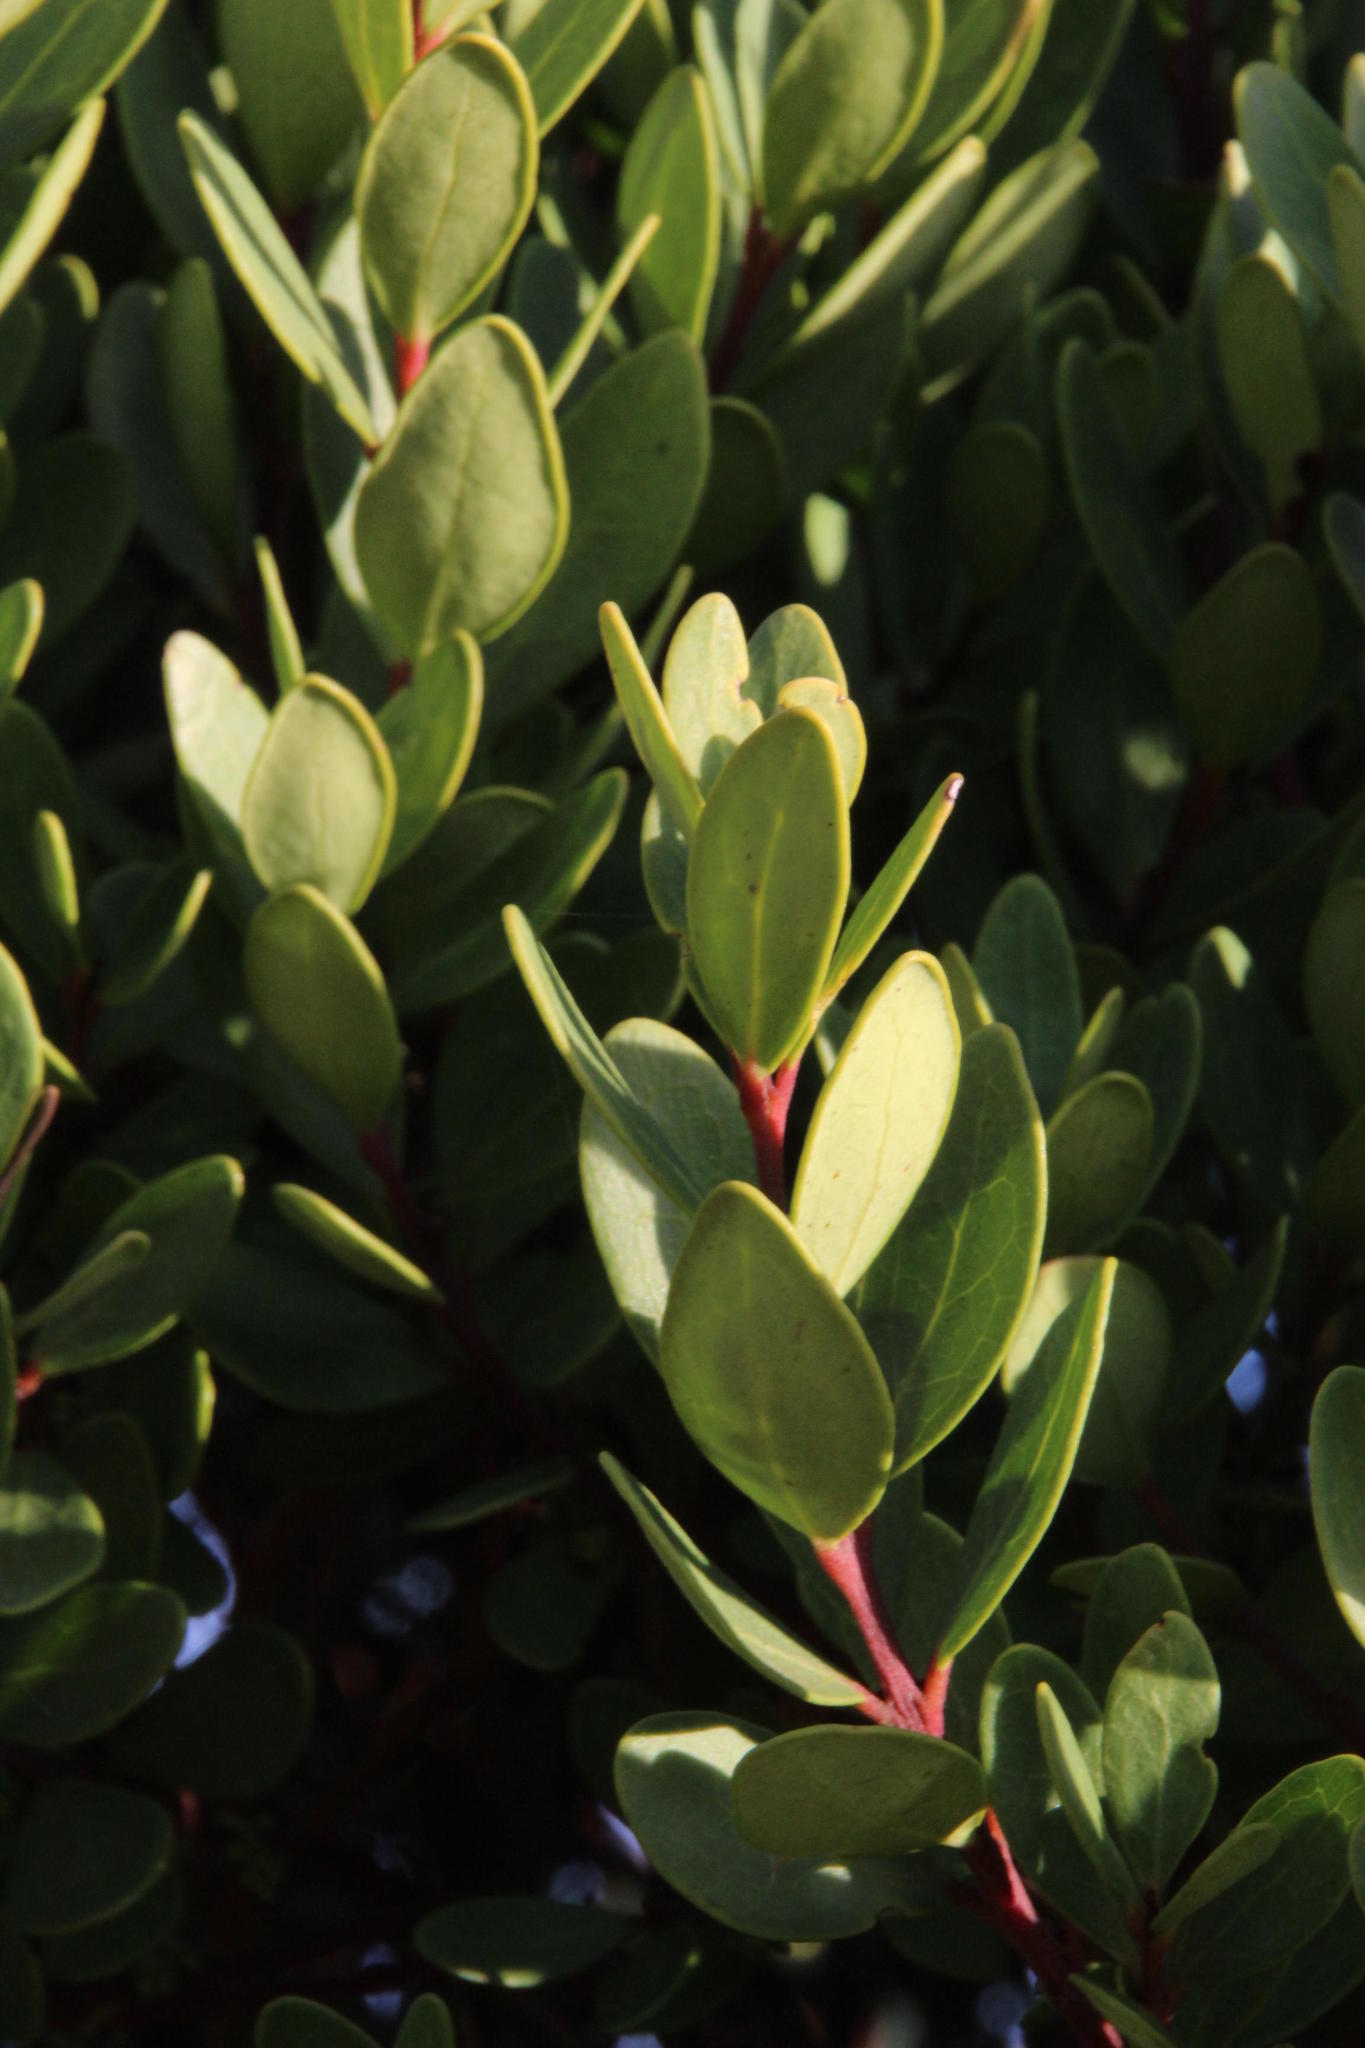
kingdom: Plantae
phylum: Tracheophyta
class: Magnoliopsida
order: Ericales
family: Ebenaceae
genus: Euclea
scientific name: Euclea racemosa
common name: Dune guarri
